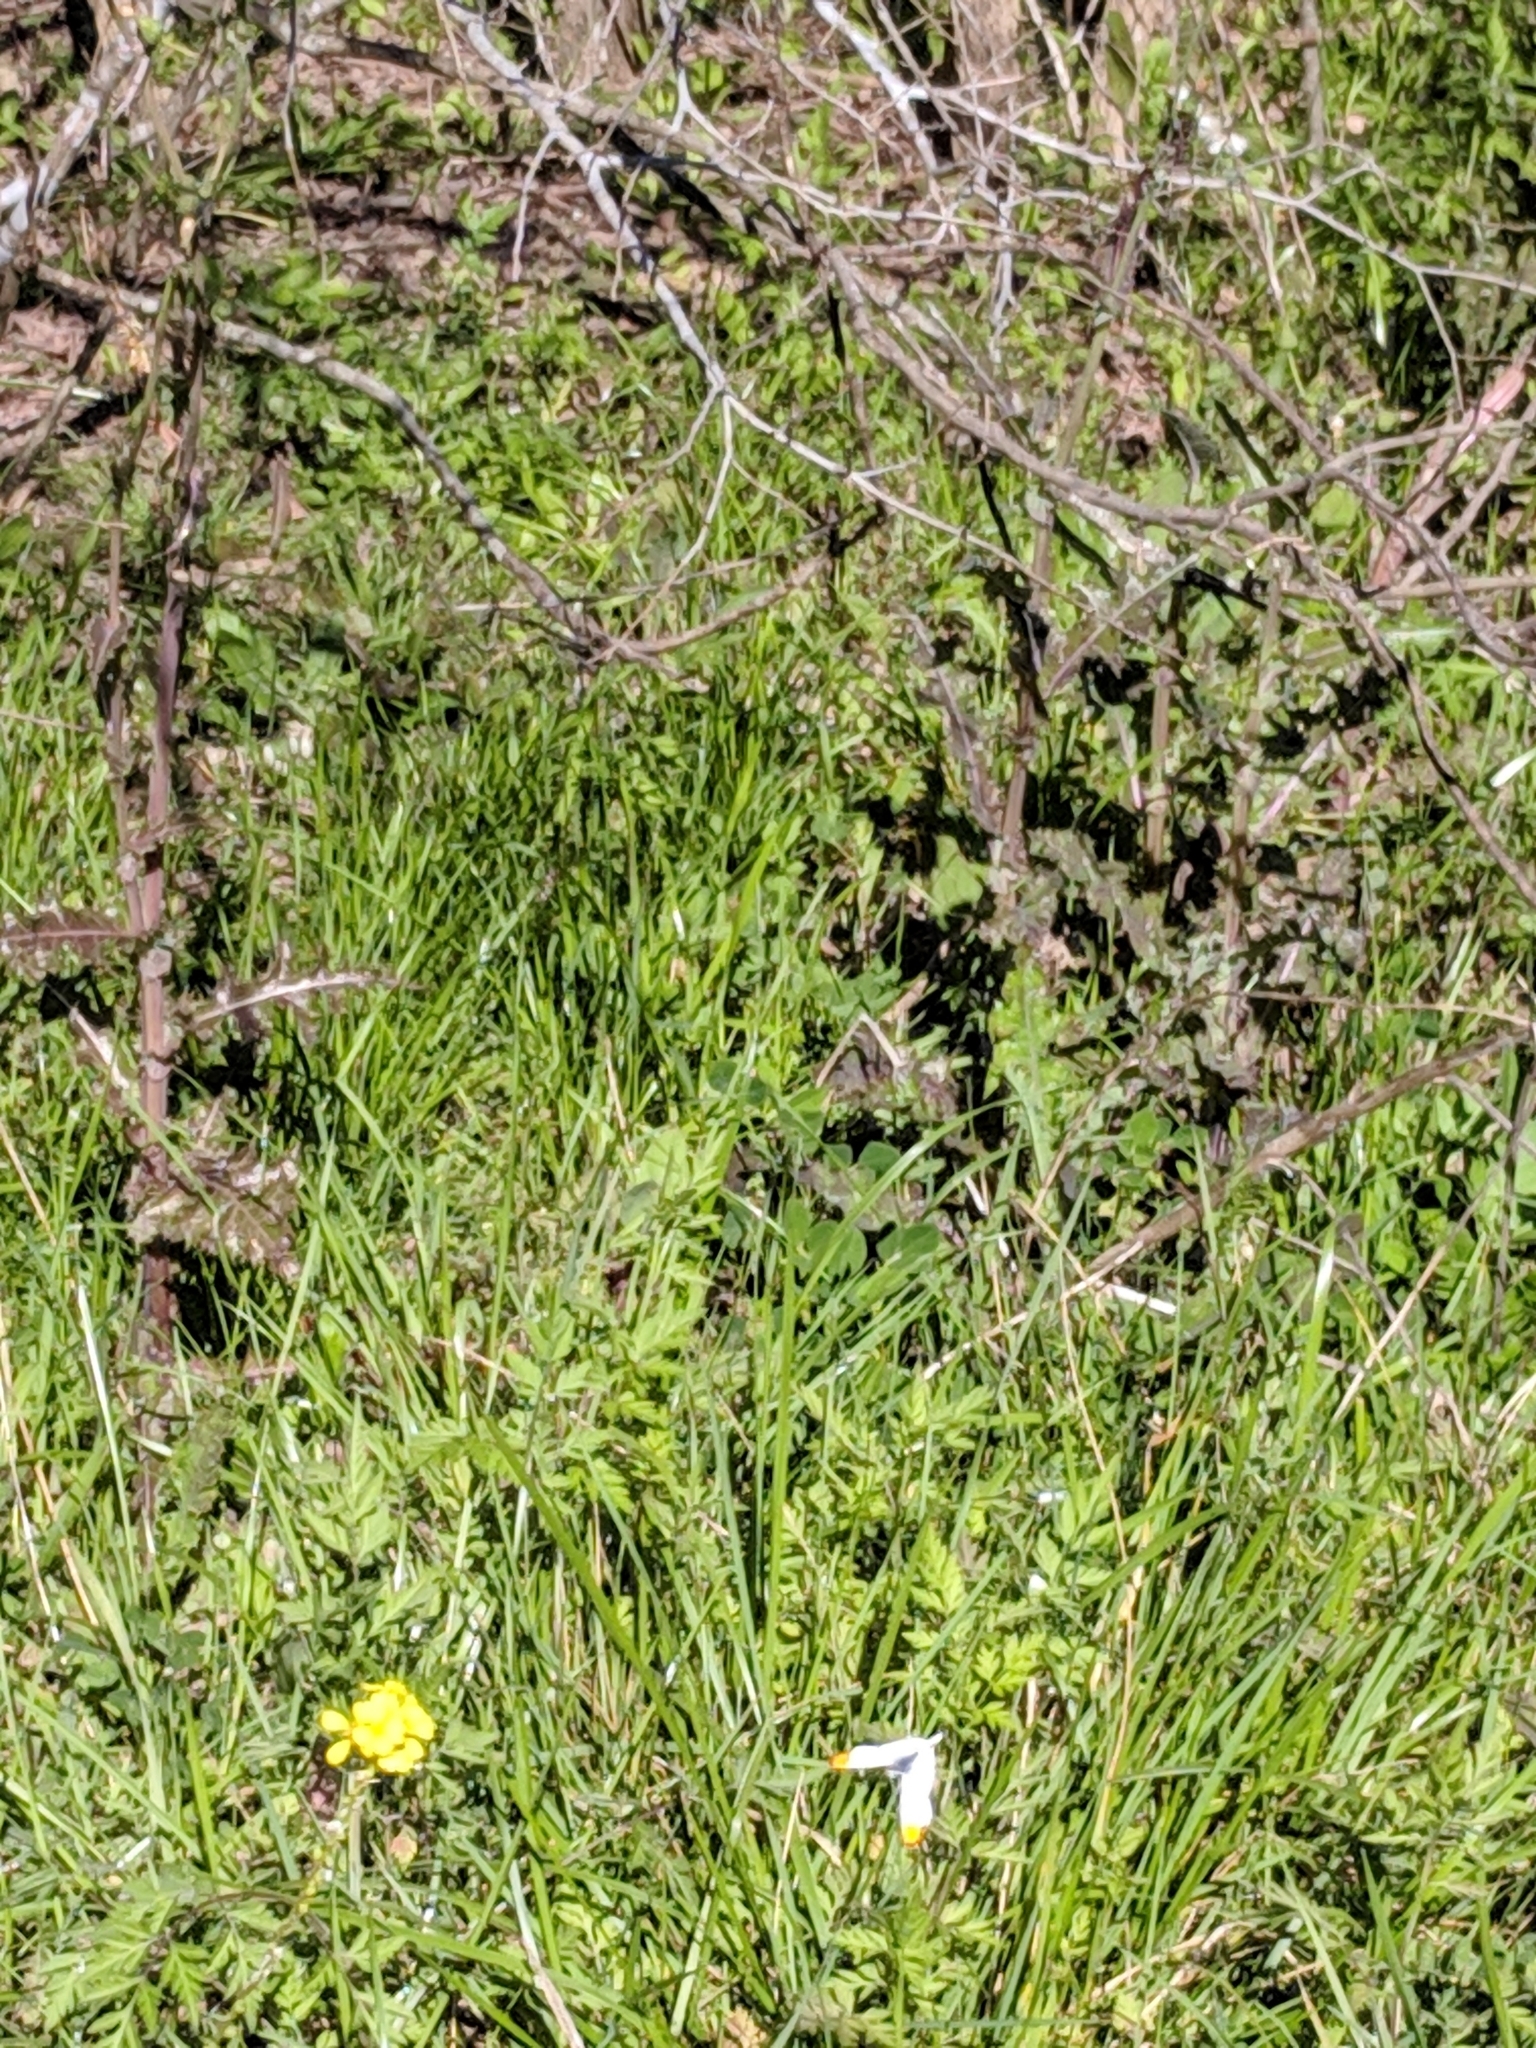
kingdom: Animalia
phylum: Arthropoda
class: Insecta
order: Lepidoptera
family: Pieridae
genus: Anthocharis
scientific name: Anthocharis midea
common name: Falcate orangetip
